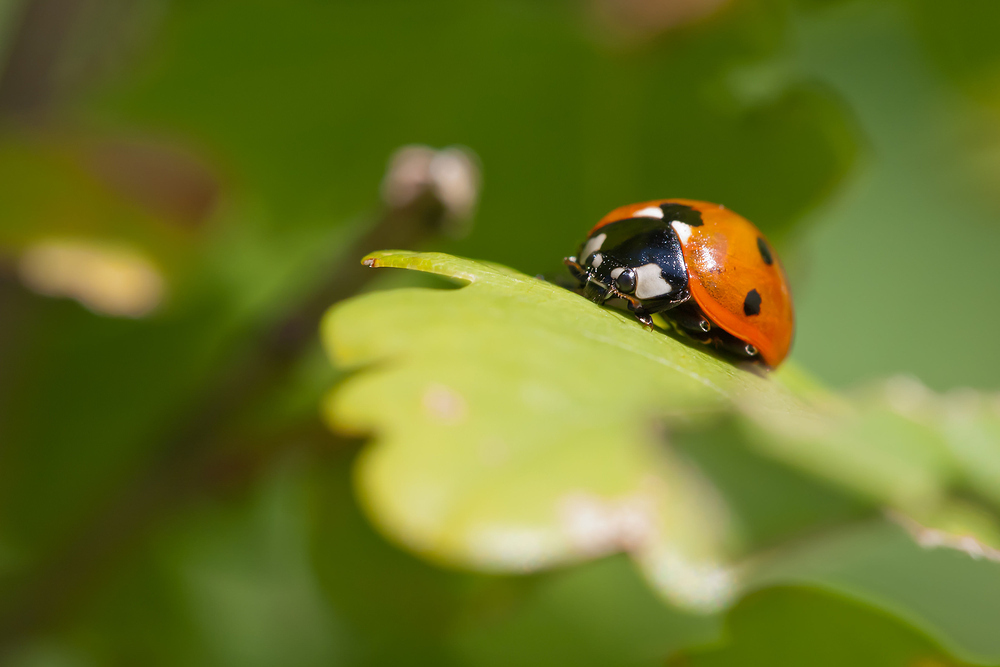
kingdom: Animalia
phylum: Arthropoda
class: Insecta
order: Coleoptera
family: Coccinellidae
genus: Coccinella
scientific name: Coccinella septempunctata
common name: Sevenspotted lady beetle
